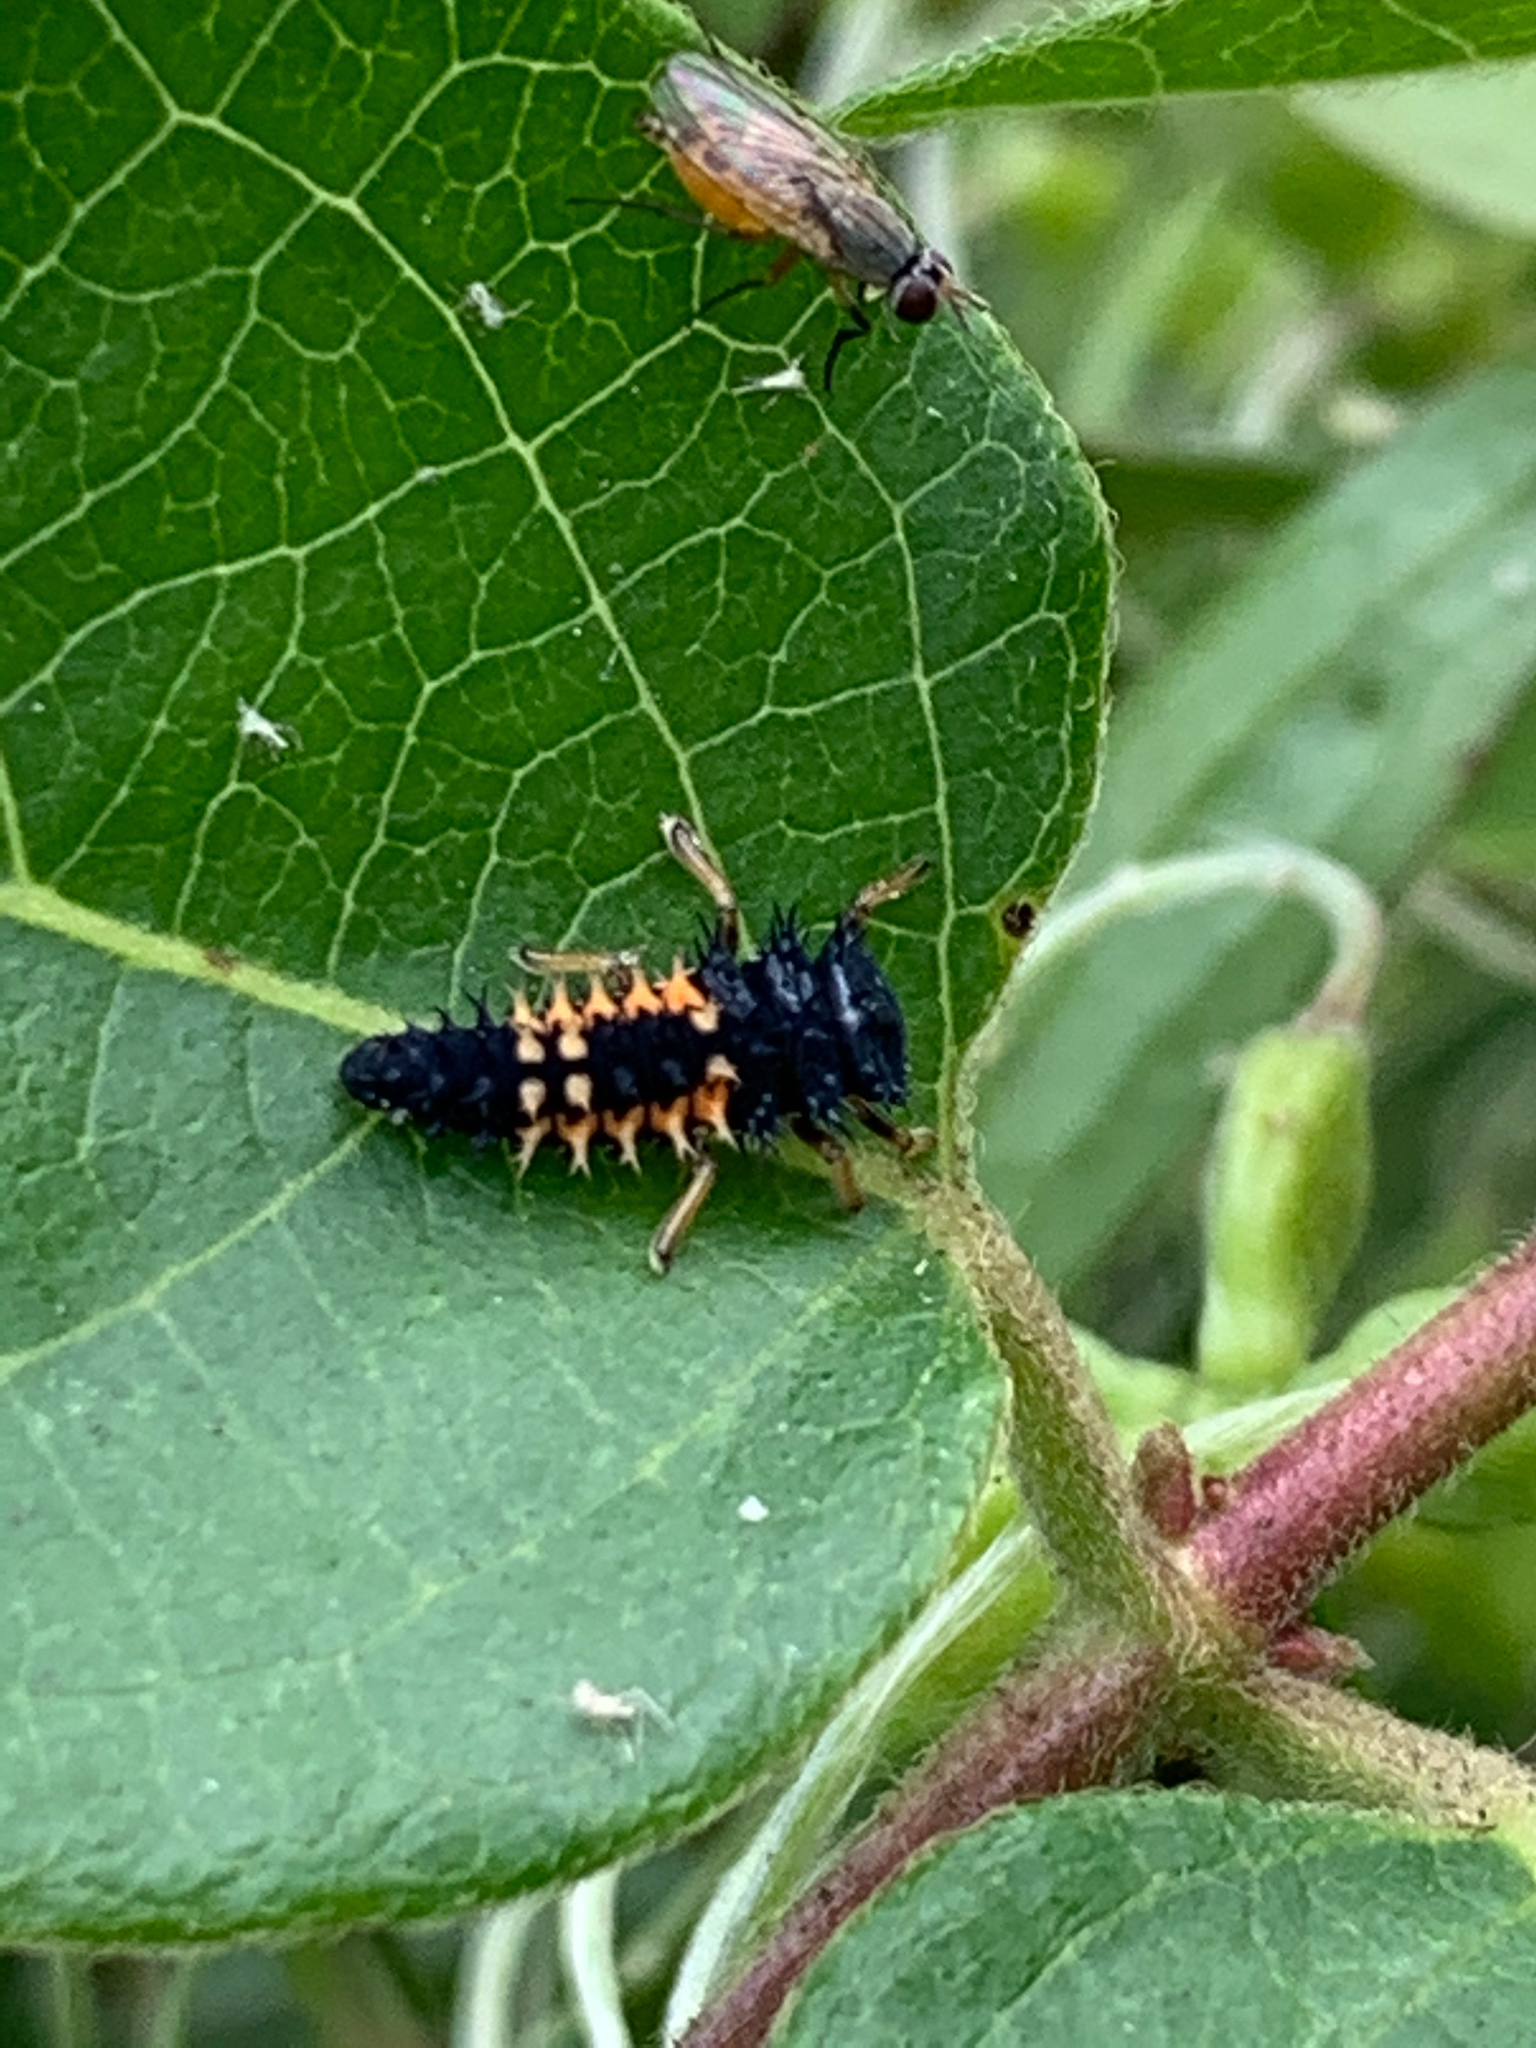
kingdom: Animalia
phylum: Arthropoda
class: Insecta
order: Coleoptera
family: Coccinellidae
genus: Harmonia
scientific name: Harmonia axyridis
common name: Harlequin ladybird
